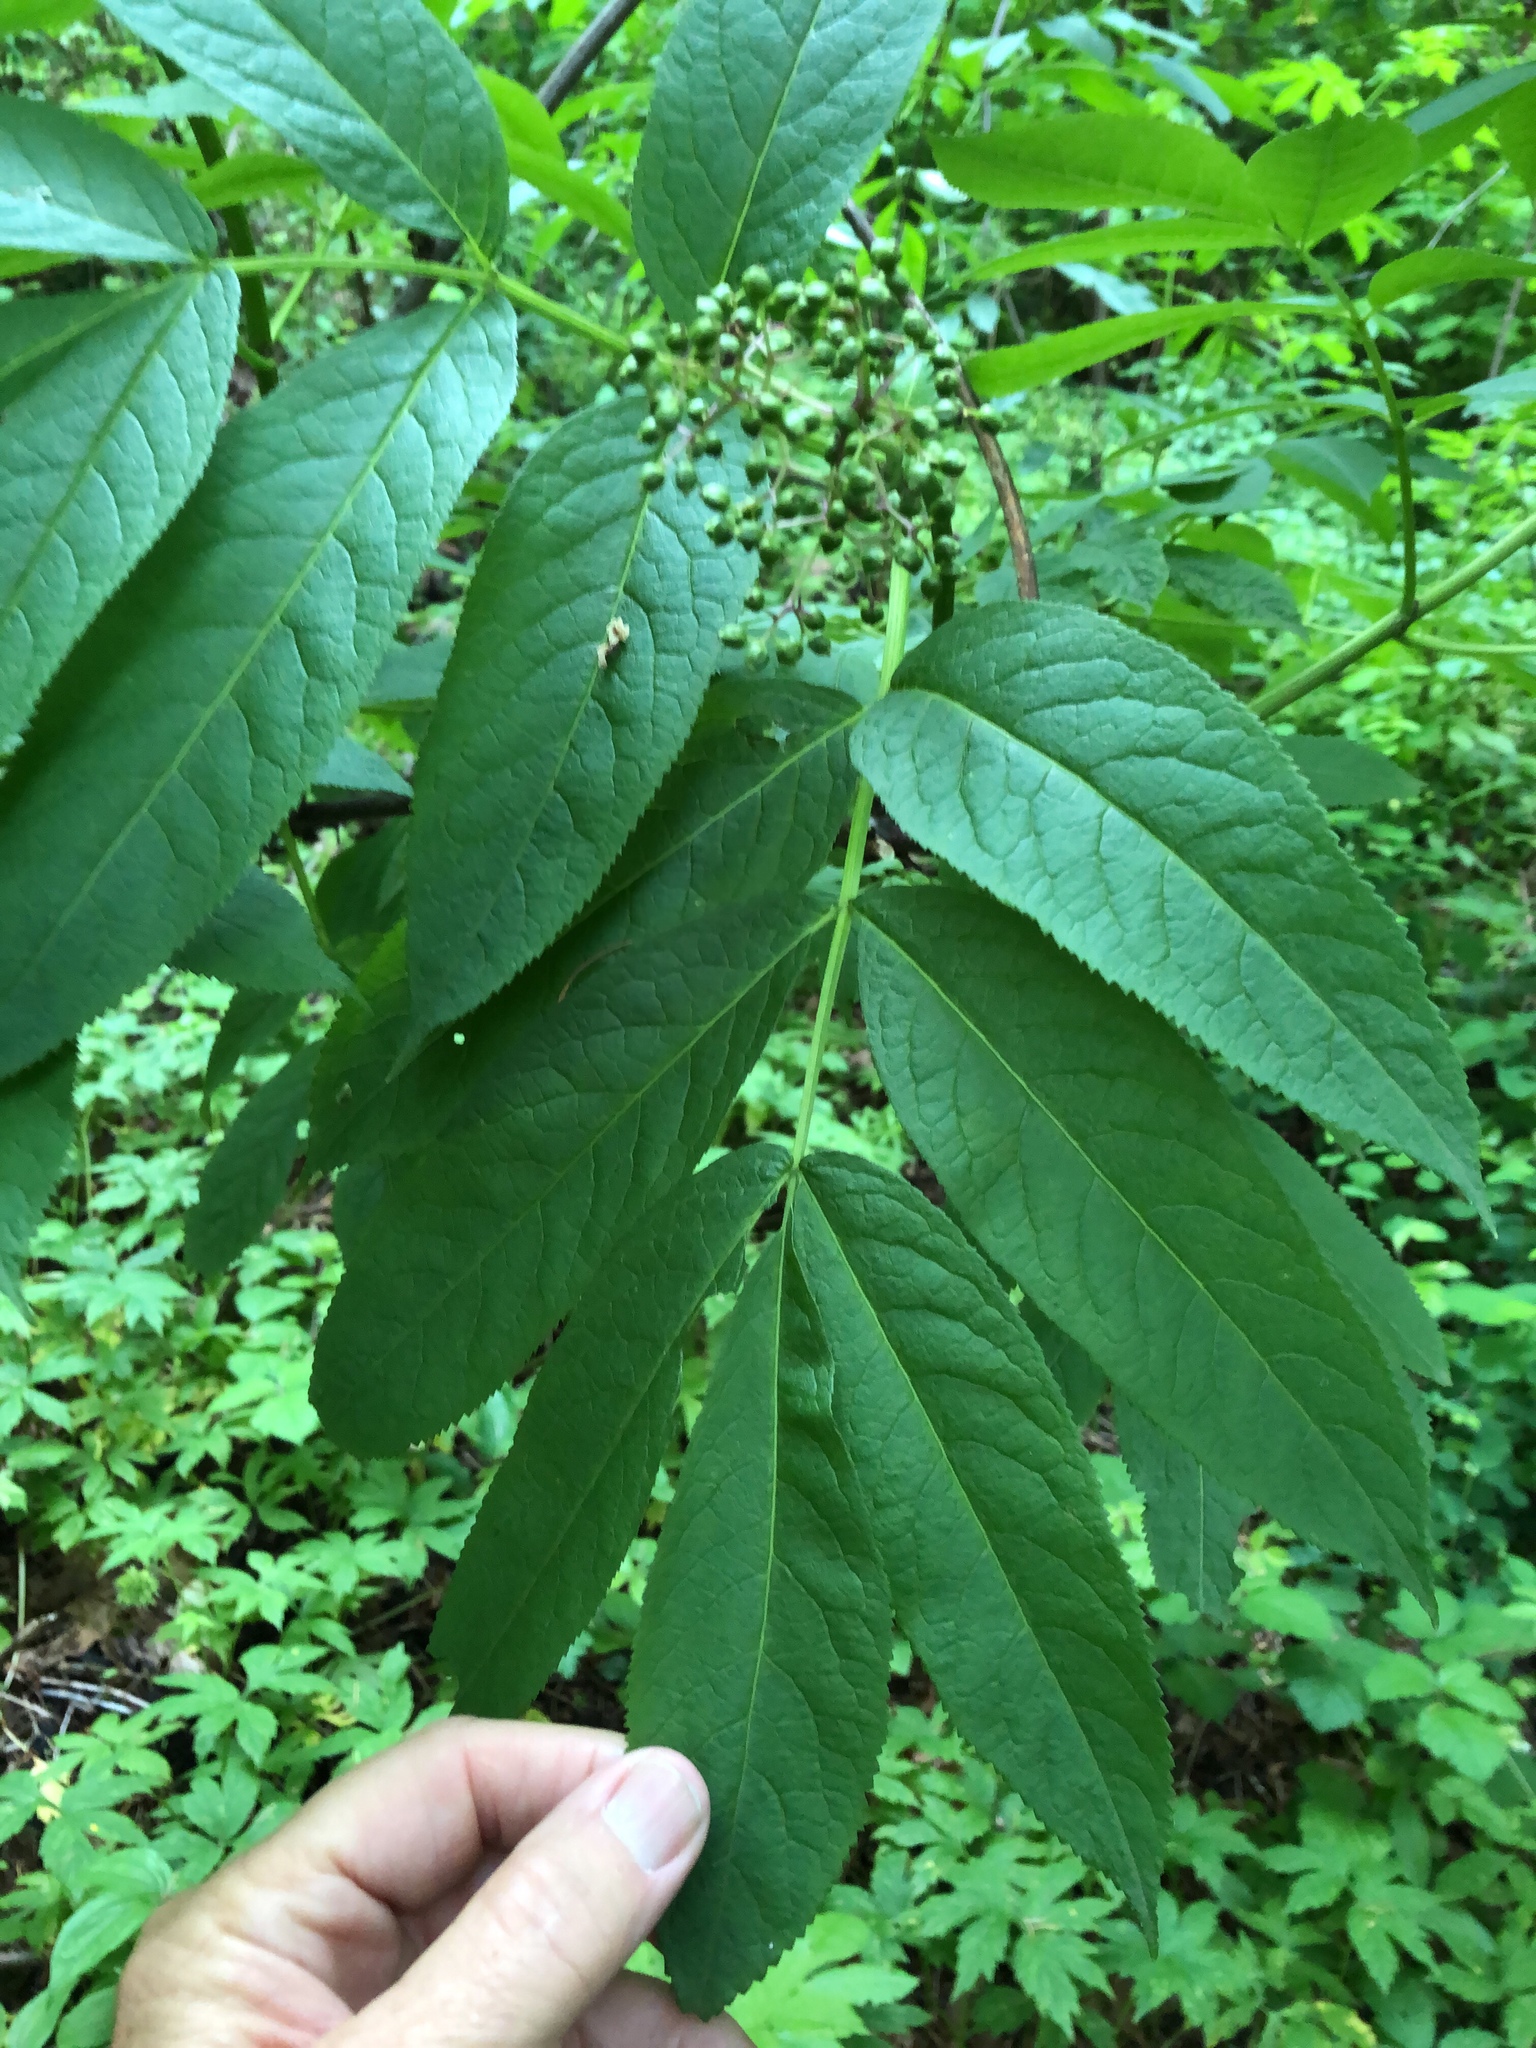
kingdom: Plantae
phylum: Tracheophyta
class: Magnoliopsida
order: Dipsacales
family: Viburnaceae
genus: Sambucus
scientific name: Sambucus racemosa
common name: Red-berried elder
